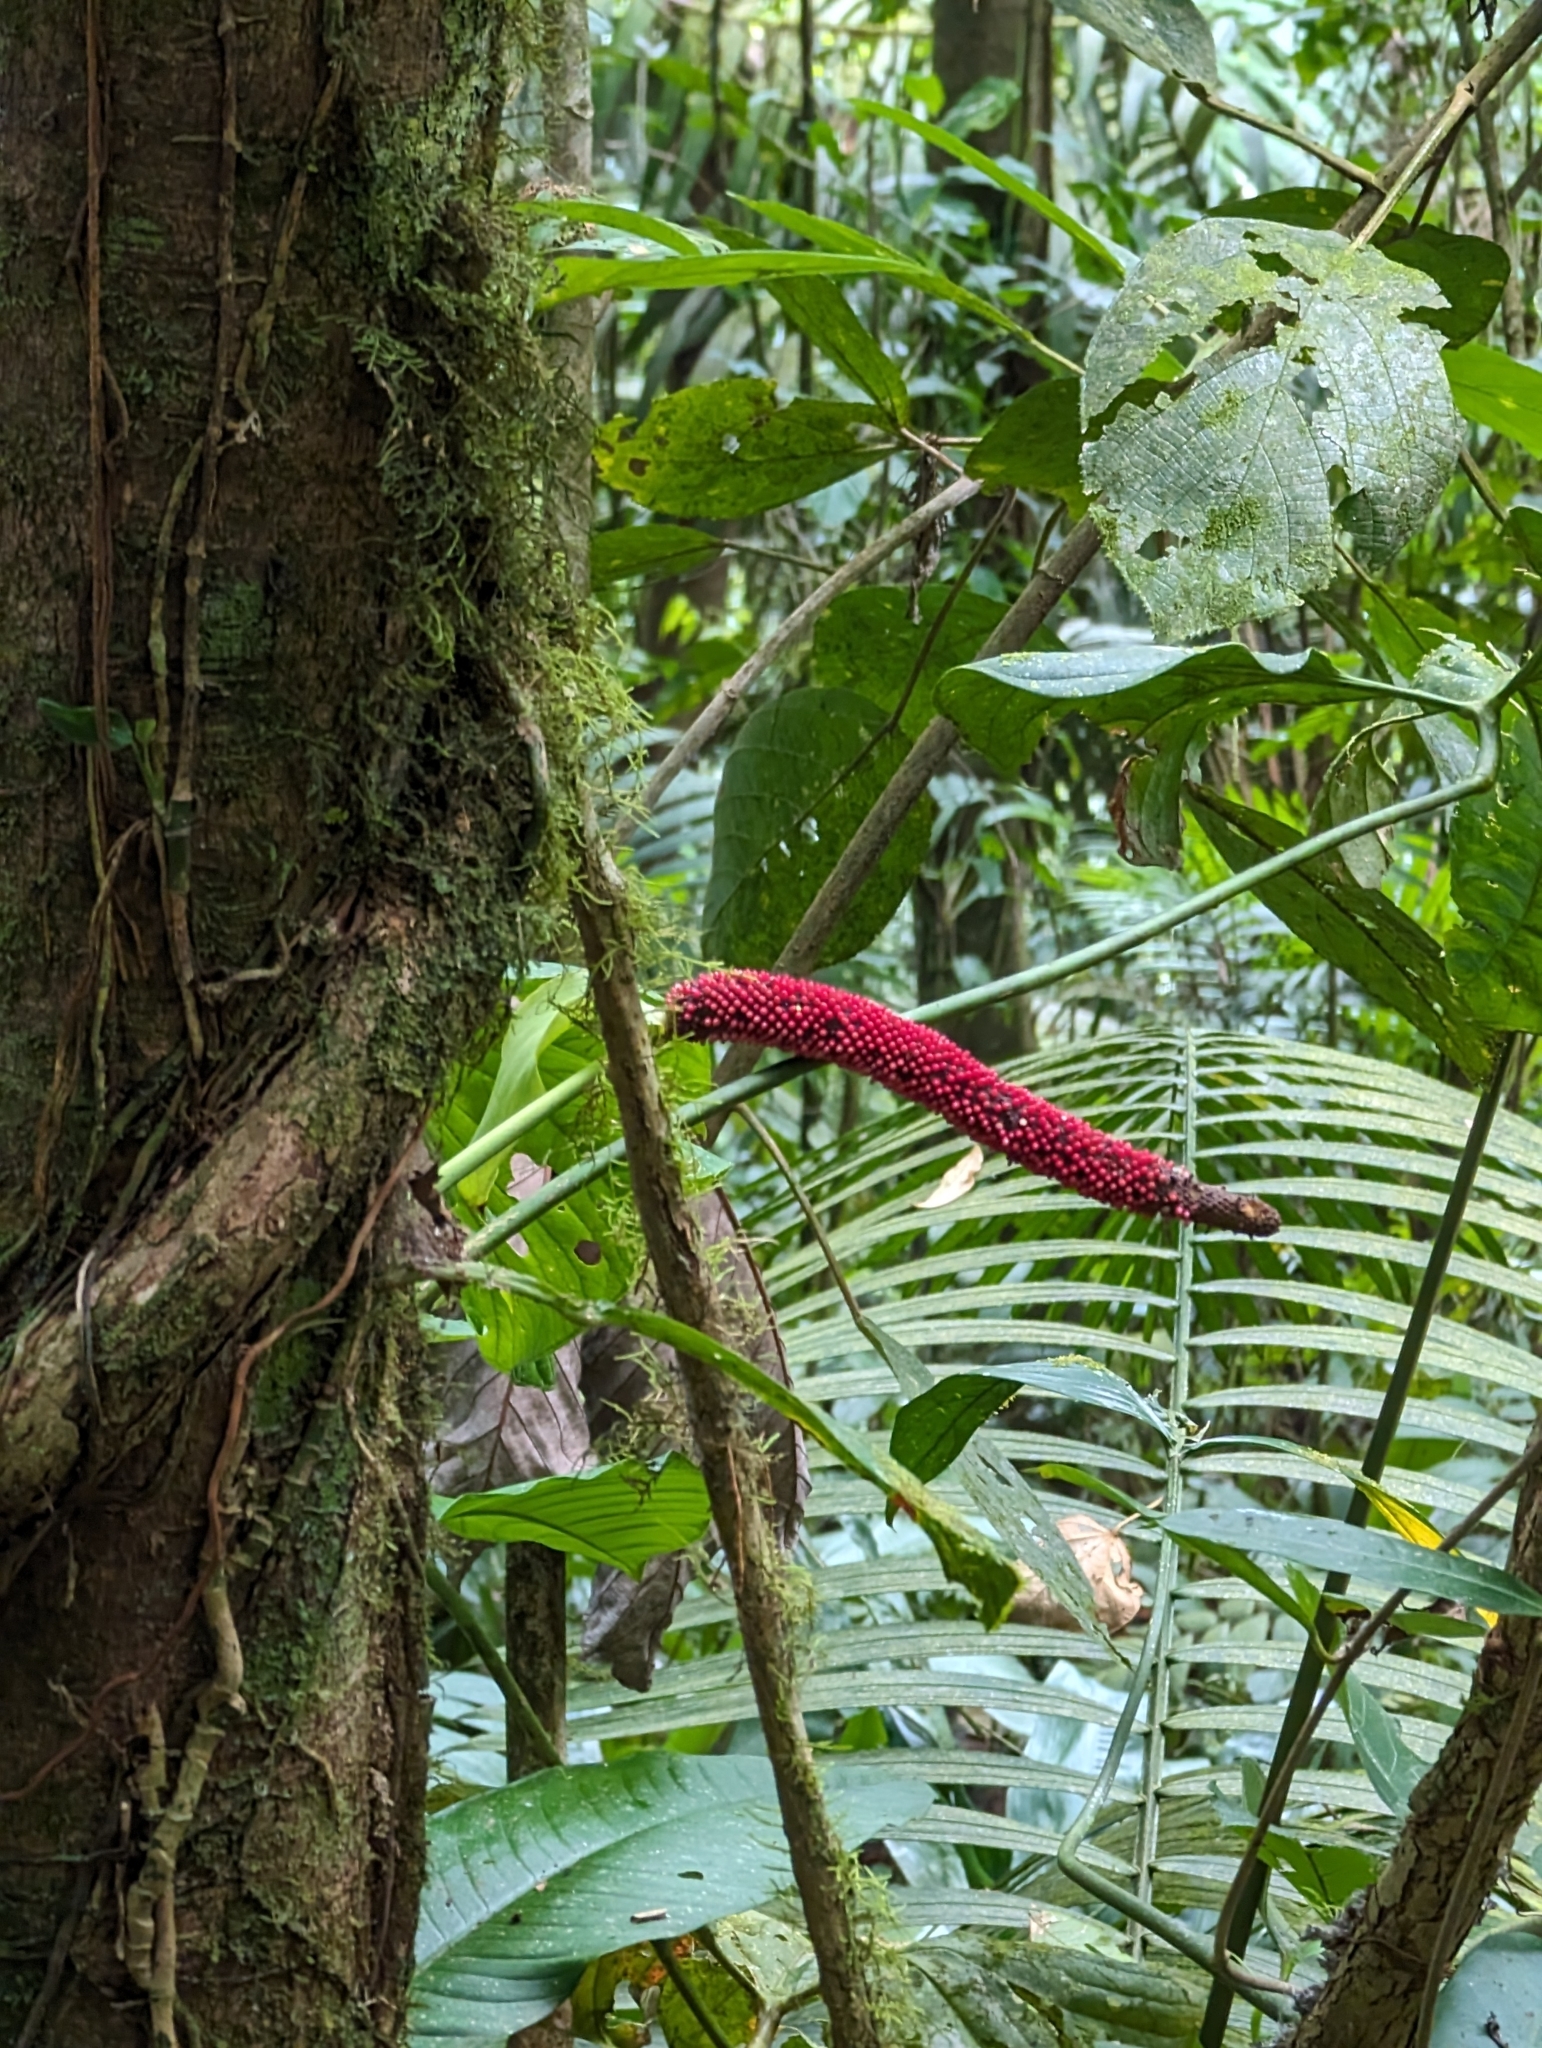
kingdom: Plantae
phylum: Tracheophyta
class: Liliopsida
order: Alismatales
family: Araceae
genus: Anthurium
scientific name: Anthurium ravenii
